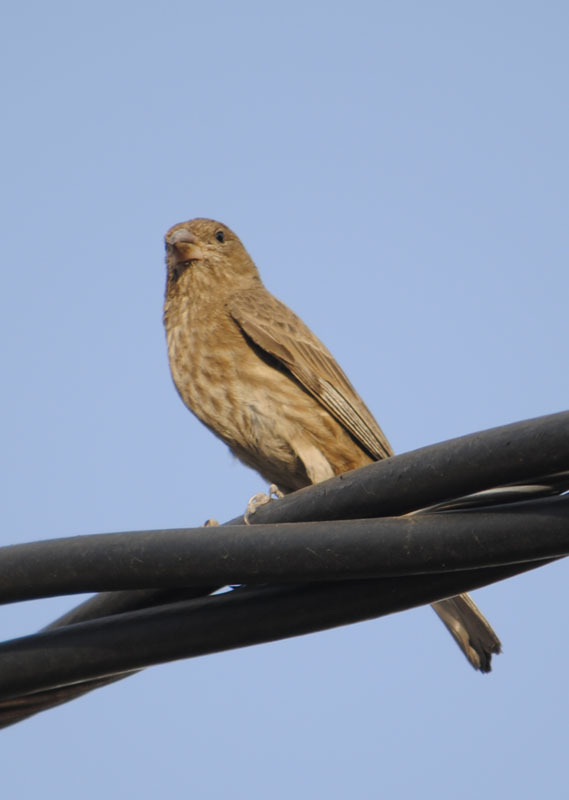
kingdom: Animalia
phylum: Chordata
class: Aves
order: Passeriformes
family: Fringillidae
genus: Haemorhous
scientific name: Haemorhous mexicanus
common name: House finch
